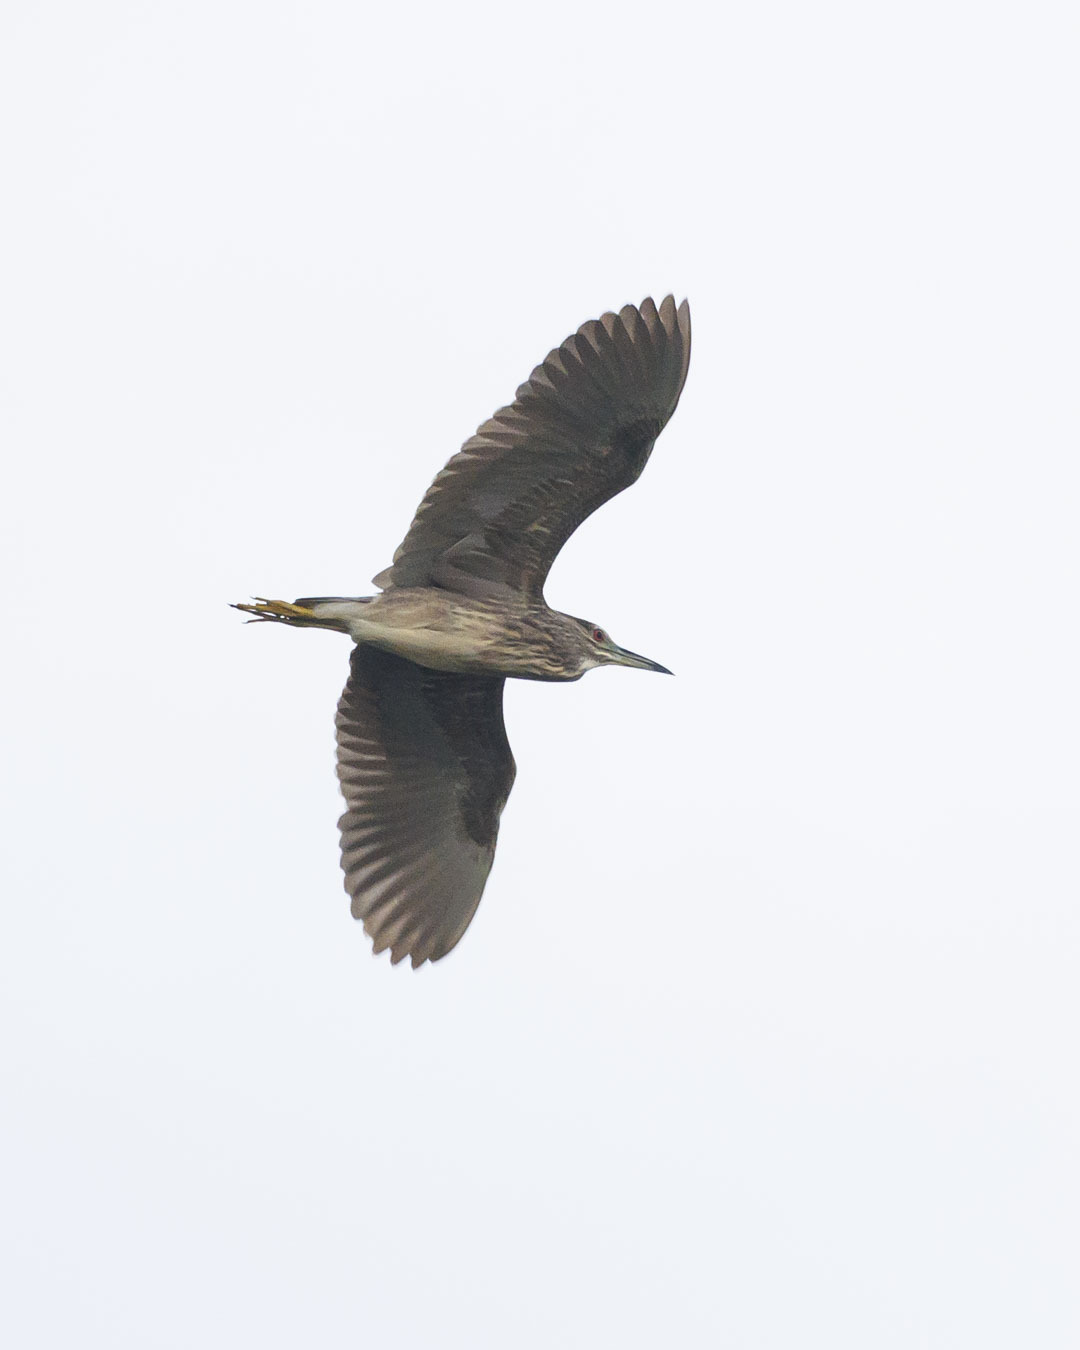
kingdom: Animalia
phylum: Chordata
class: Aves
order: Pelecaniformes
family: Ardeidae
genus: Nycticorax
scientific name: Nycticorax nycticorax
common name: Black-crowned night heron
